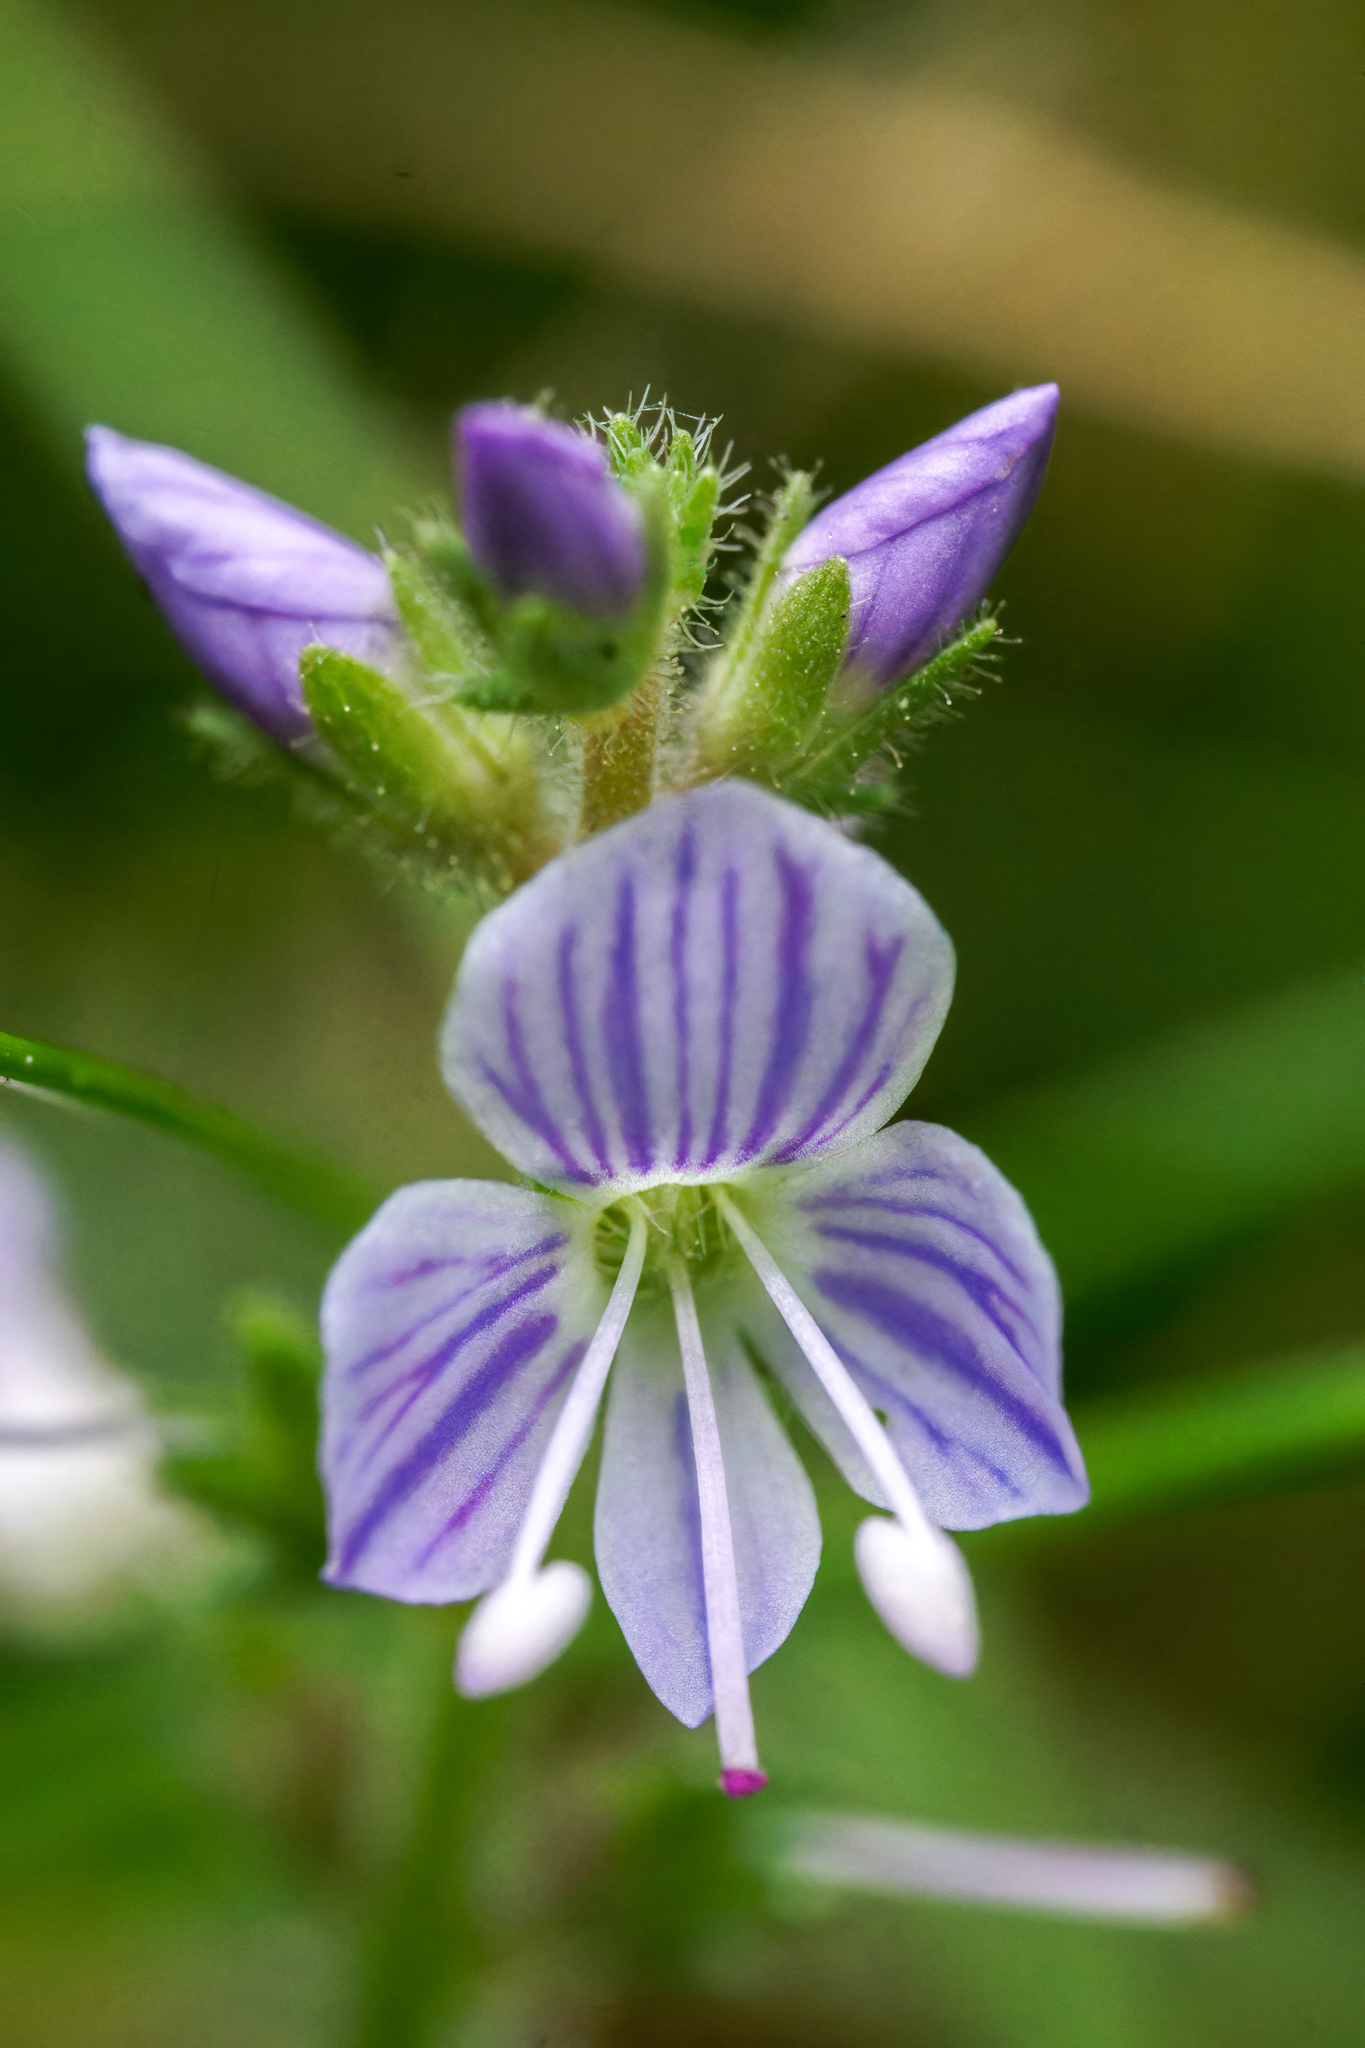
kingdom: Plantae
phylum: Tracheophyta
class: Magnoliopsida
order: Lamiales
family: Plantaginaceae
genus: Veronica
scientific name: Veronica officinalis
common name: Common speedwell
